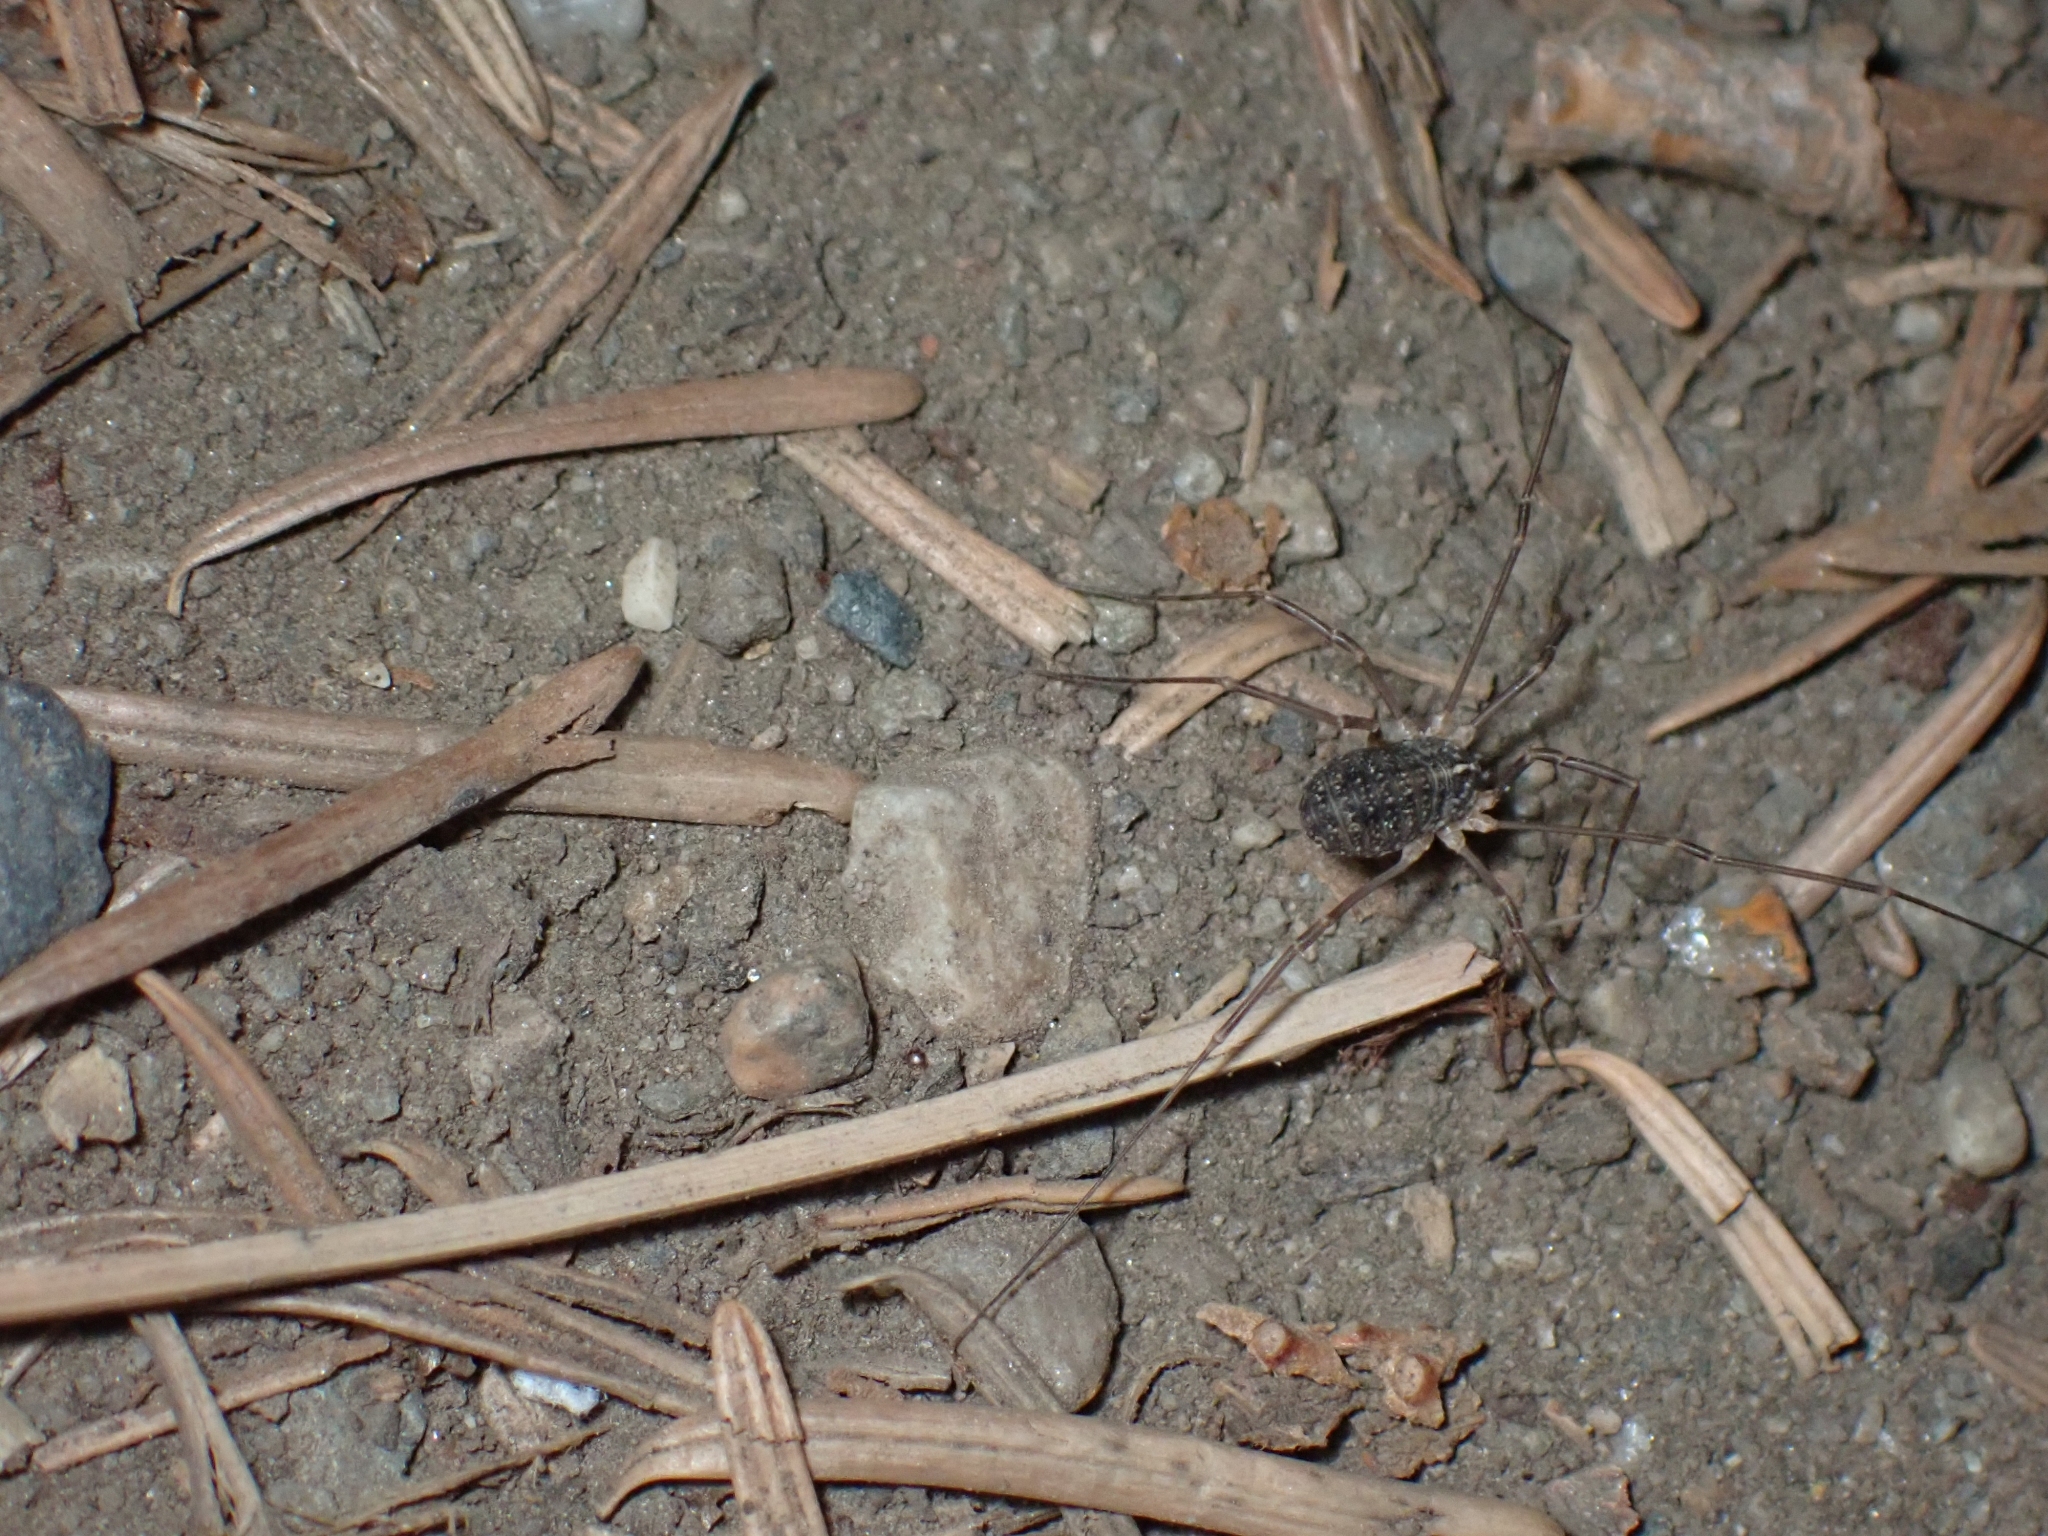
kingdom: Animalia
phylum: Arthropoda
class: Arachnida
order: Opiliones
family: Sclerosomatidae
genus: Togwoteeus
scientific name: Togwoteeus biceps
